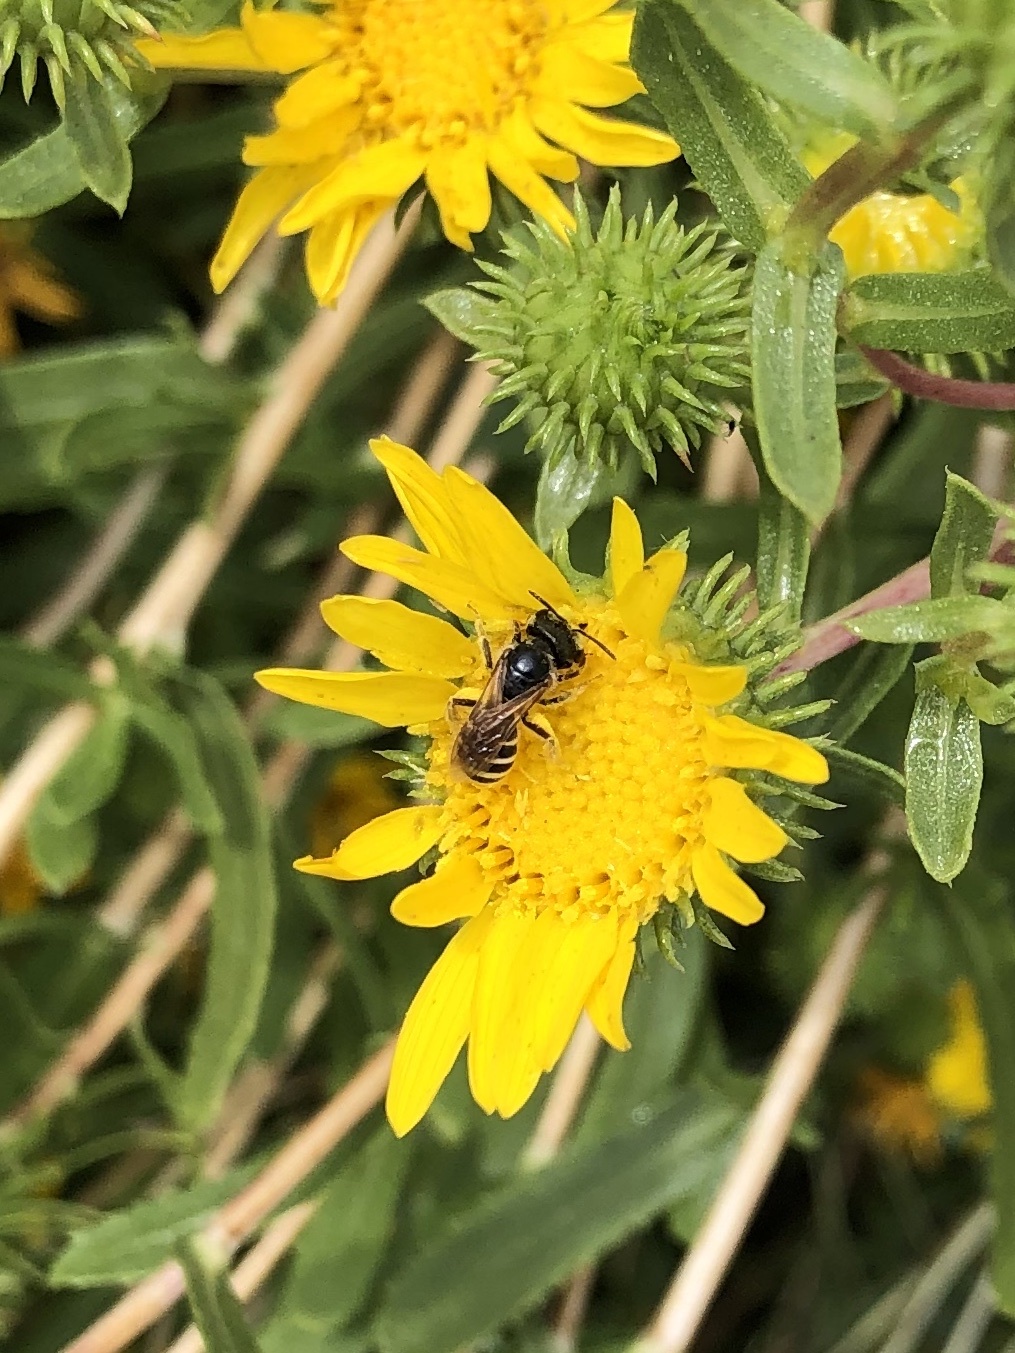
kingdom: Animalia
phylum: Arthropoda
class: Insecta
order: Hymenoptera
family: Halictidae
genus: Halictus
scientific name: Halictus ligatus
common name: Ligated furrow bee
